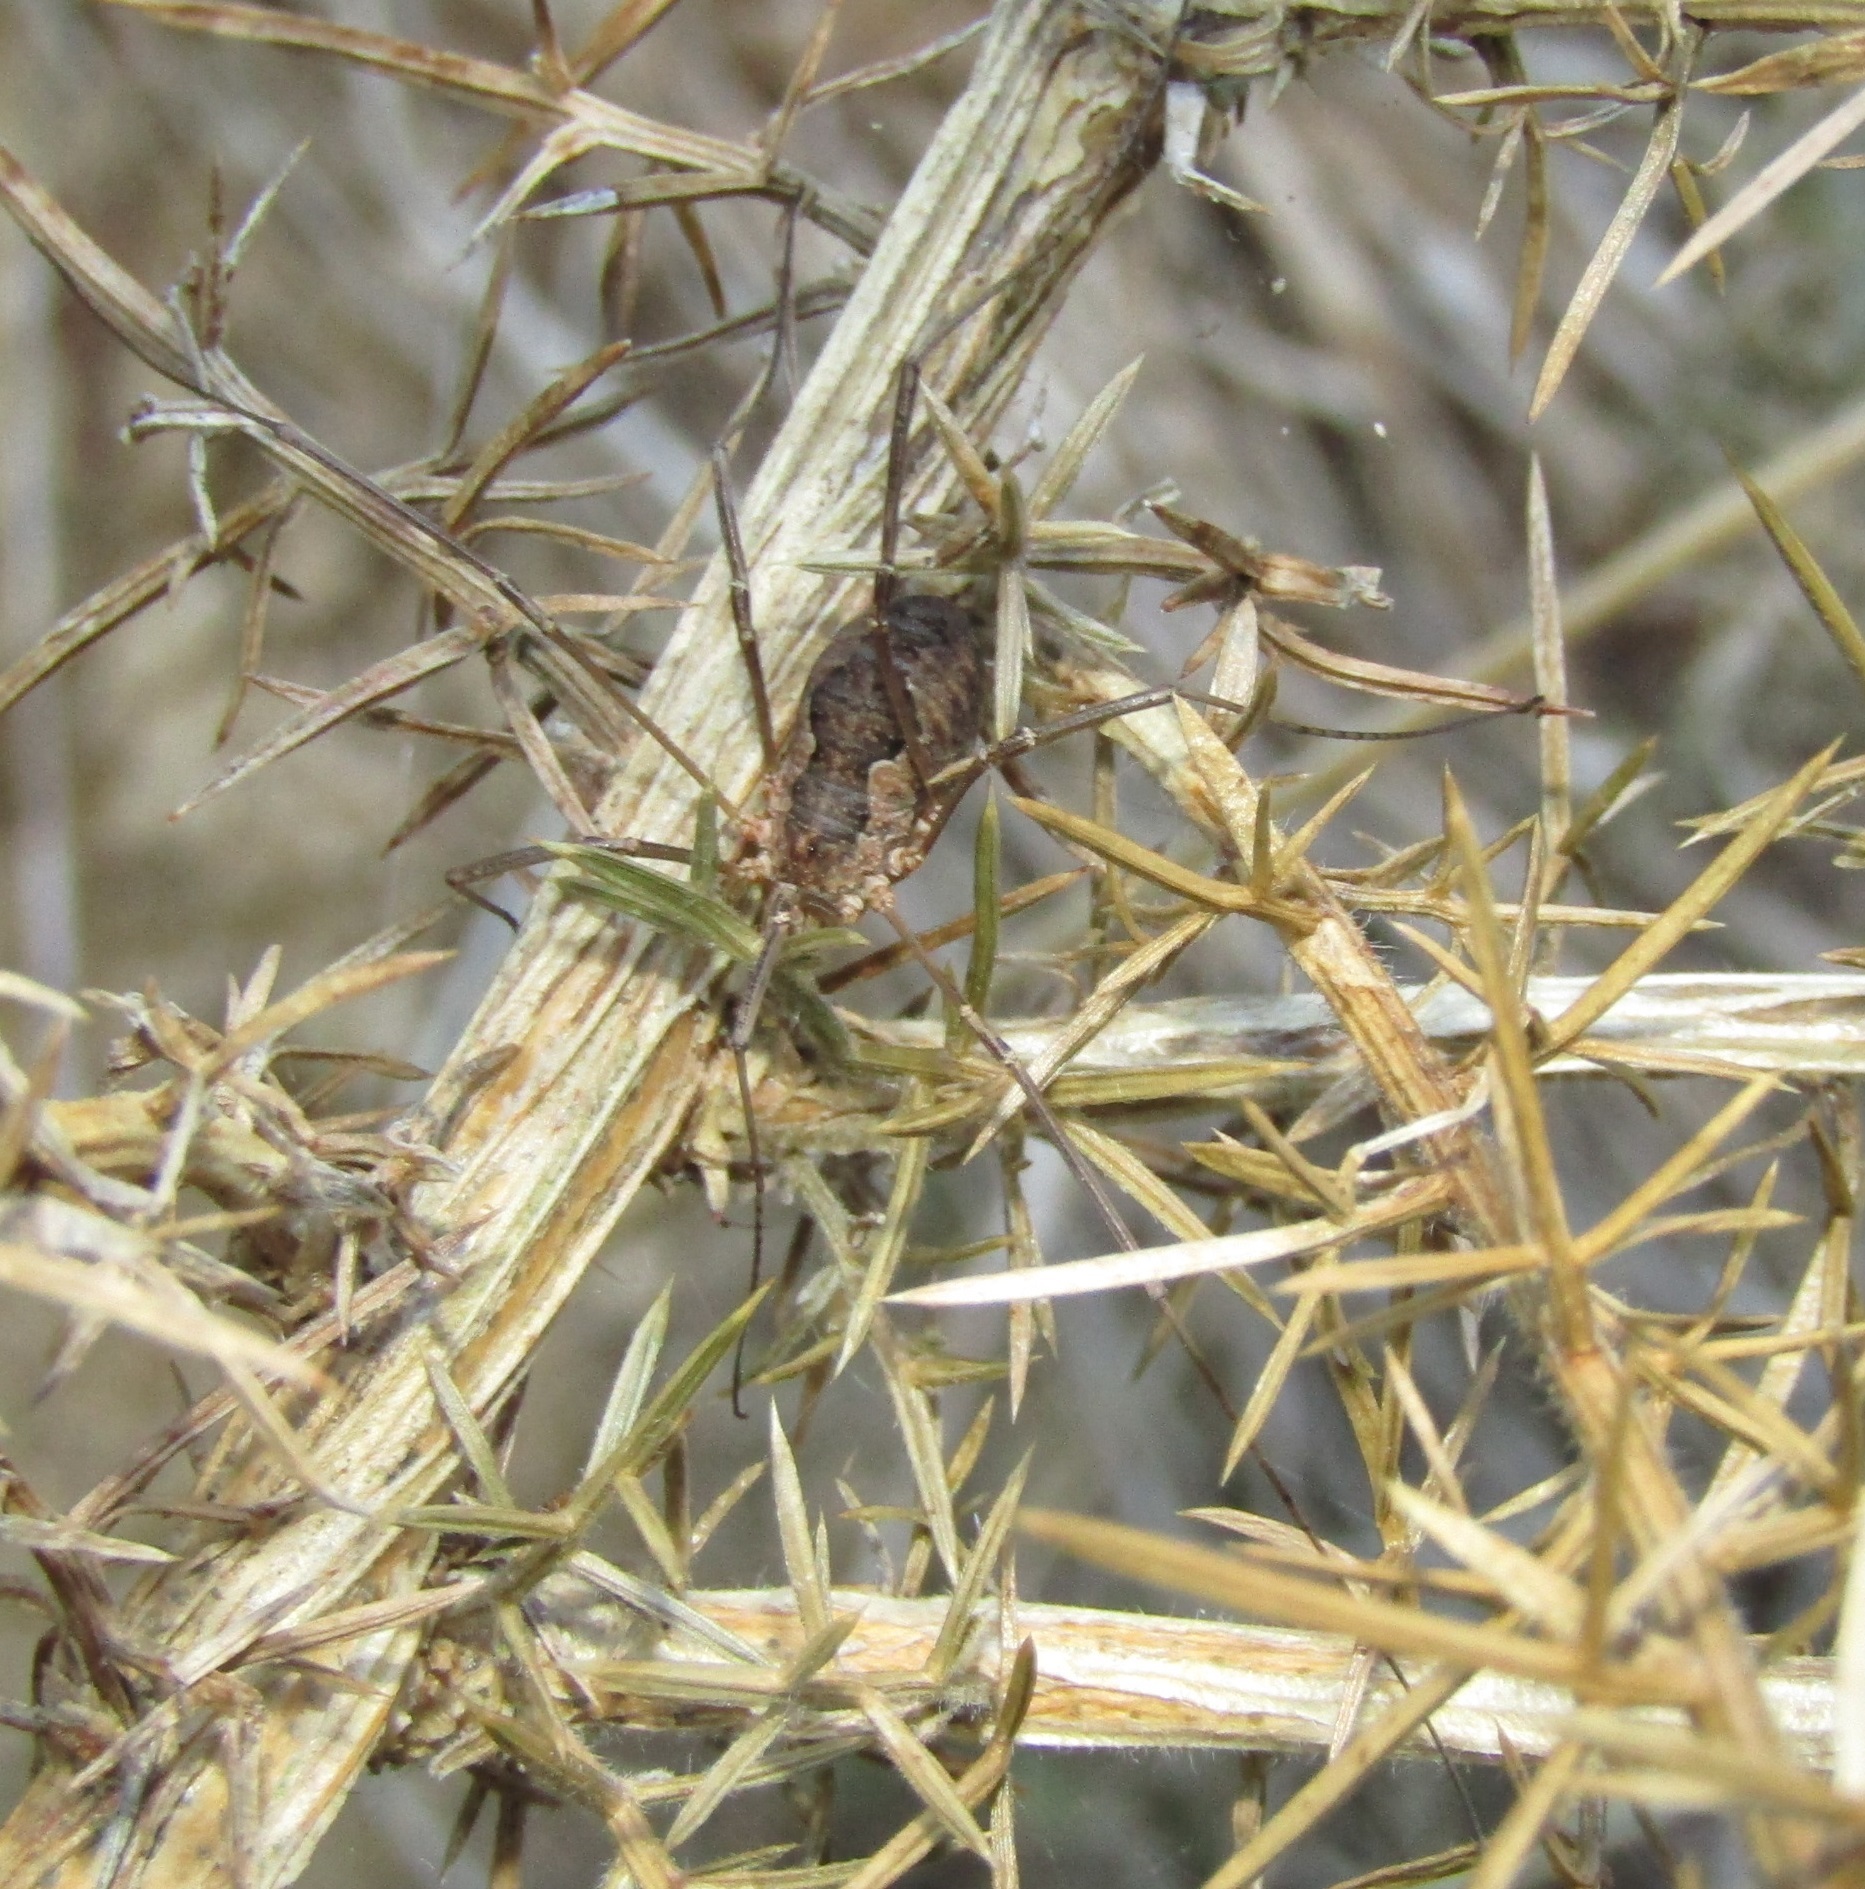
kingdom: Animalia
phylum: Arthropoda
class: Arachnida
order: Opiliones
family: Phalangiidae
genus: Phalangium
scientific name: Phalangium opilio
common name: Daddy longleg
